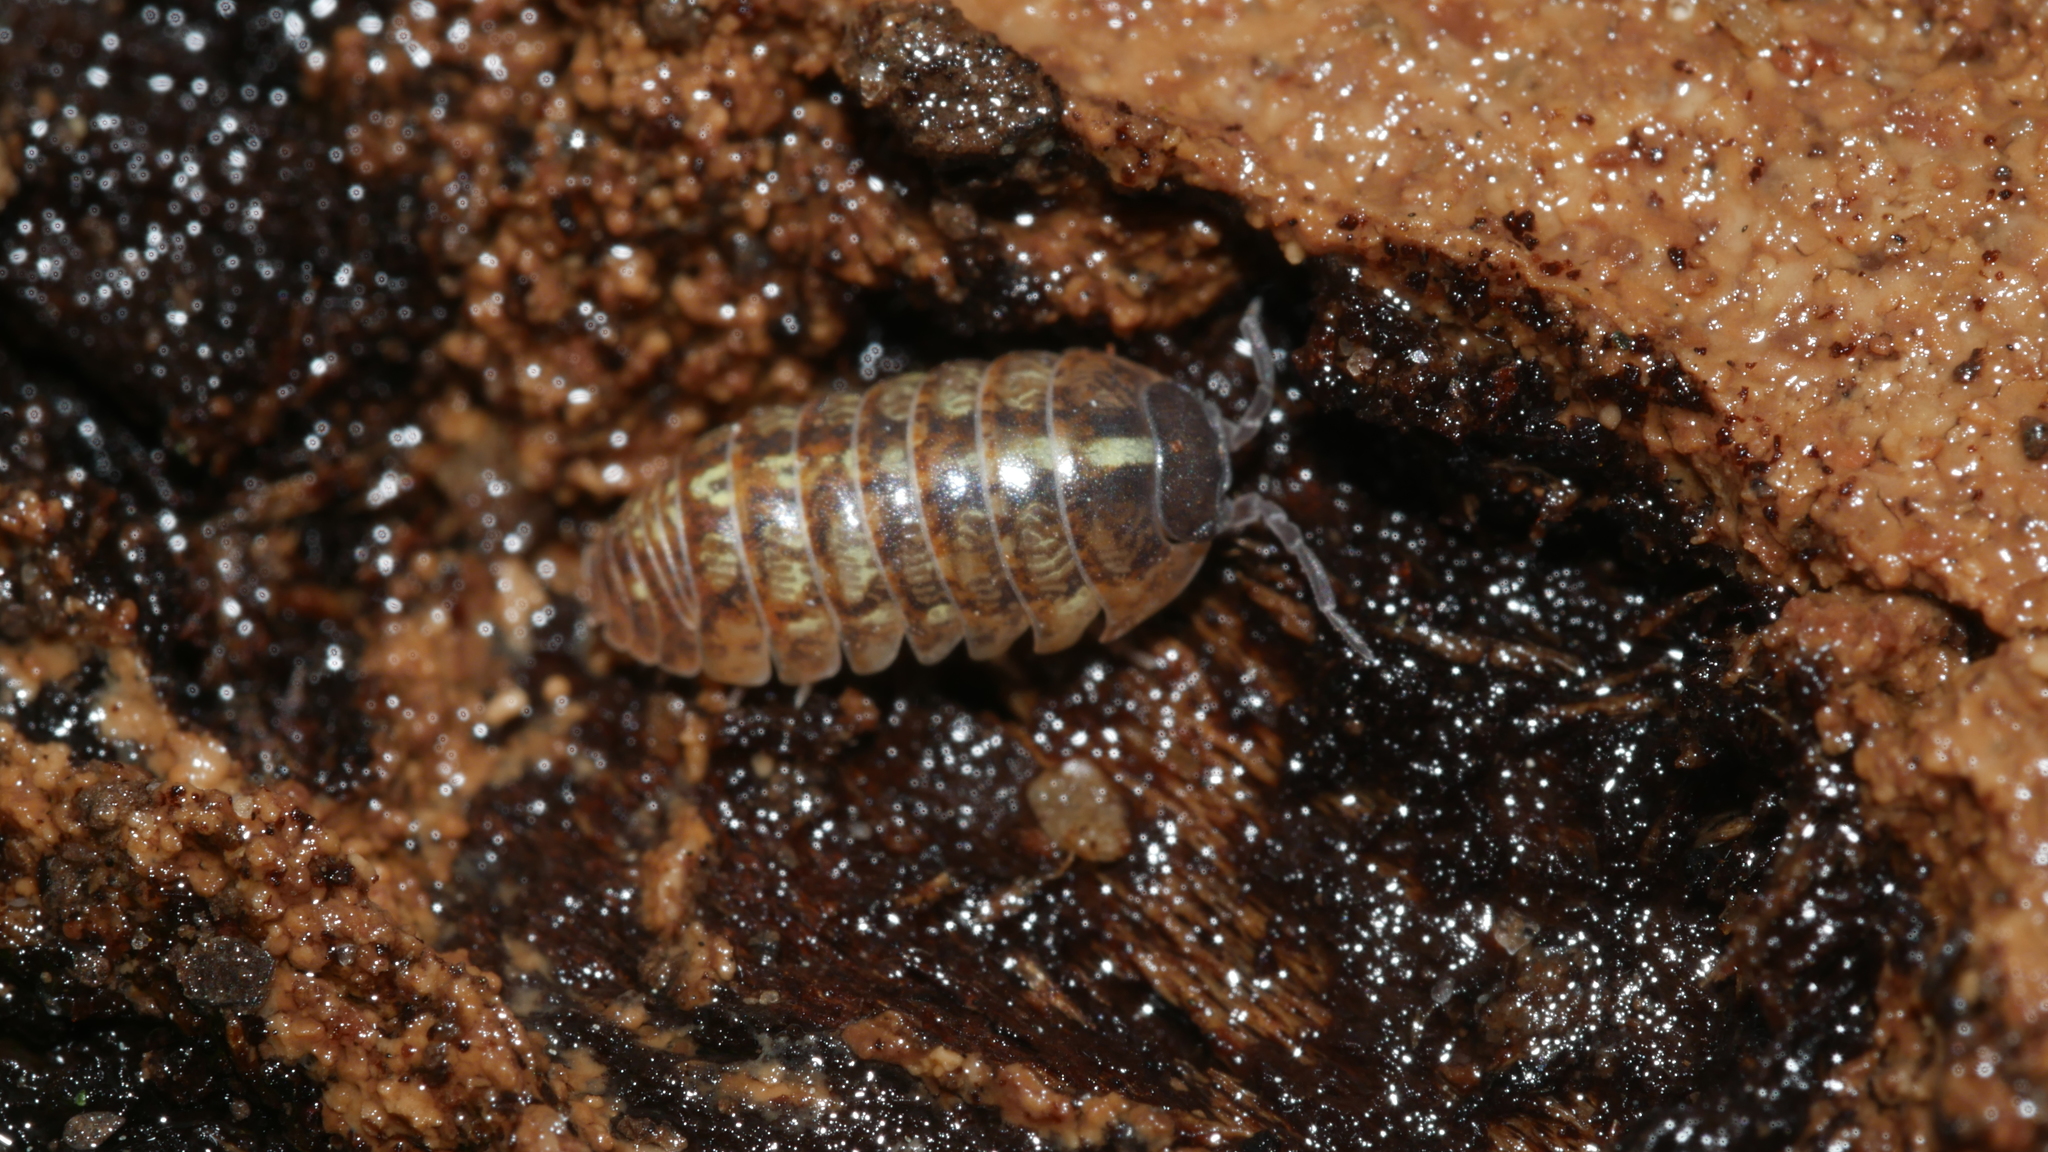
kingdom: Animalia
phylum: Arthropoda
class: Malacostraca
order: Isopoda
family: Armadillidiidae
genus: Armadillidium
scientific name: Armadillidium vulgare
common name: Common pill woodlouse
